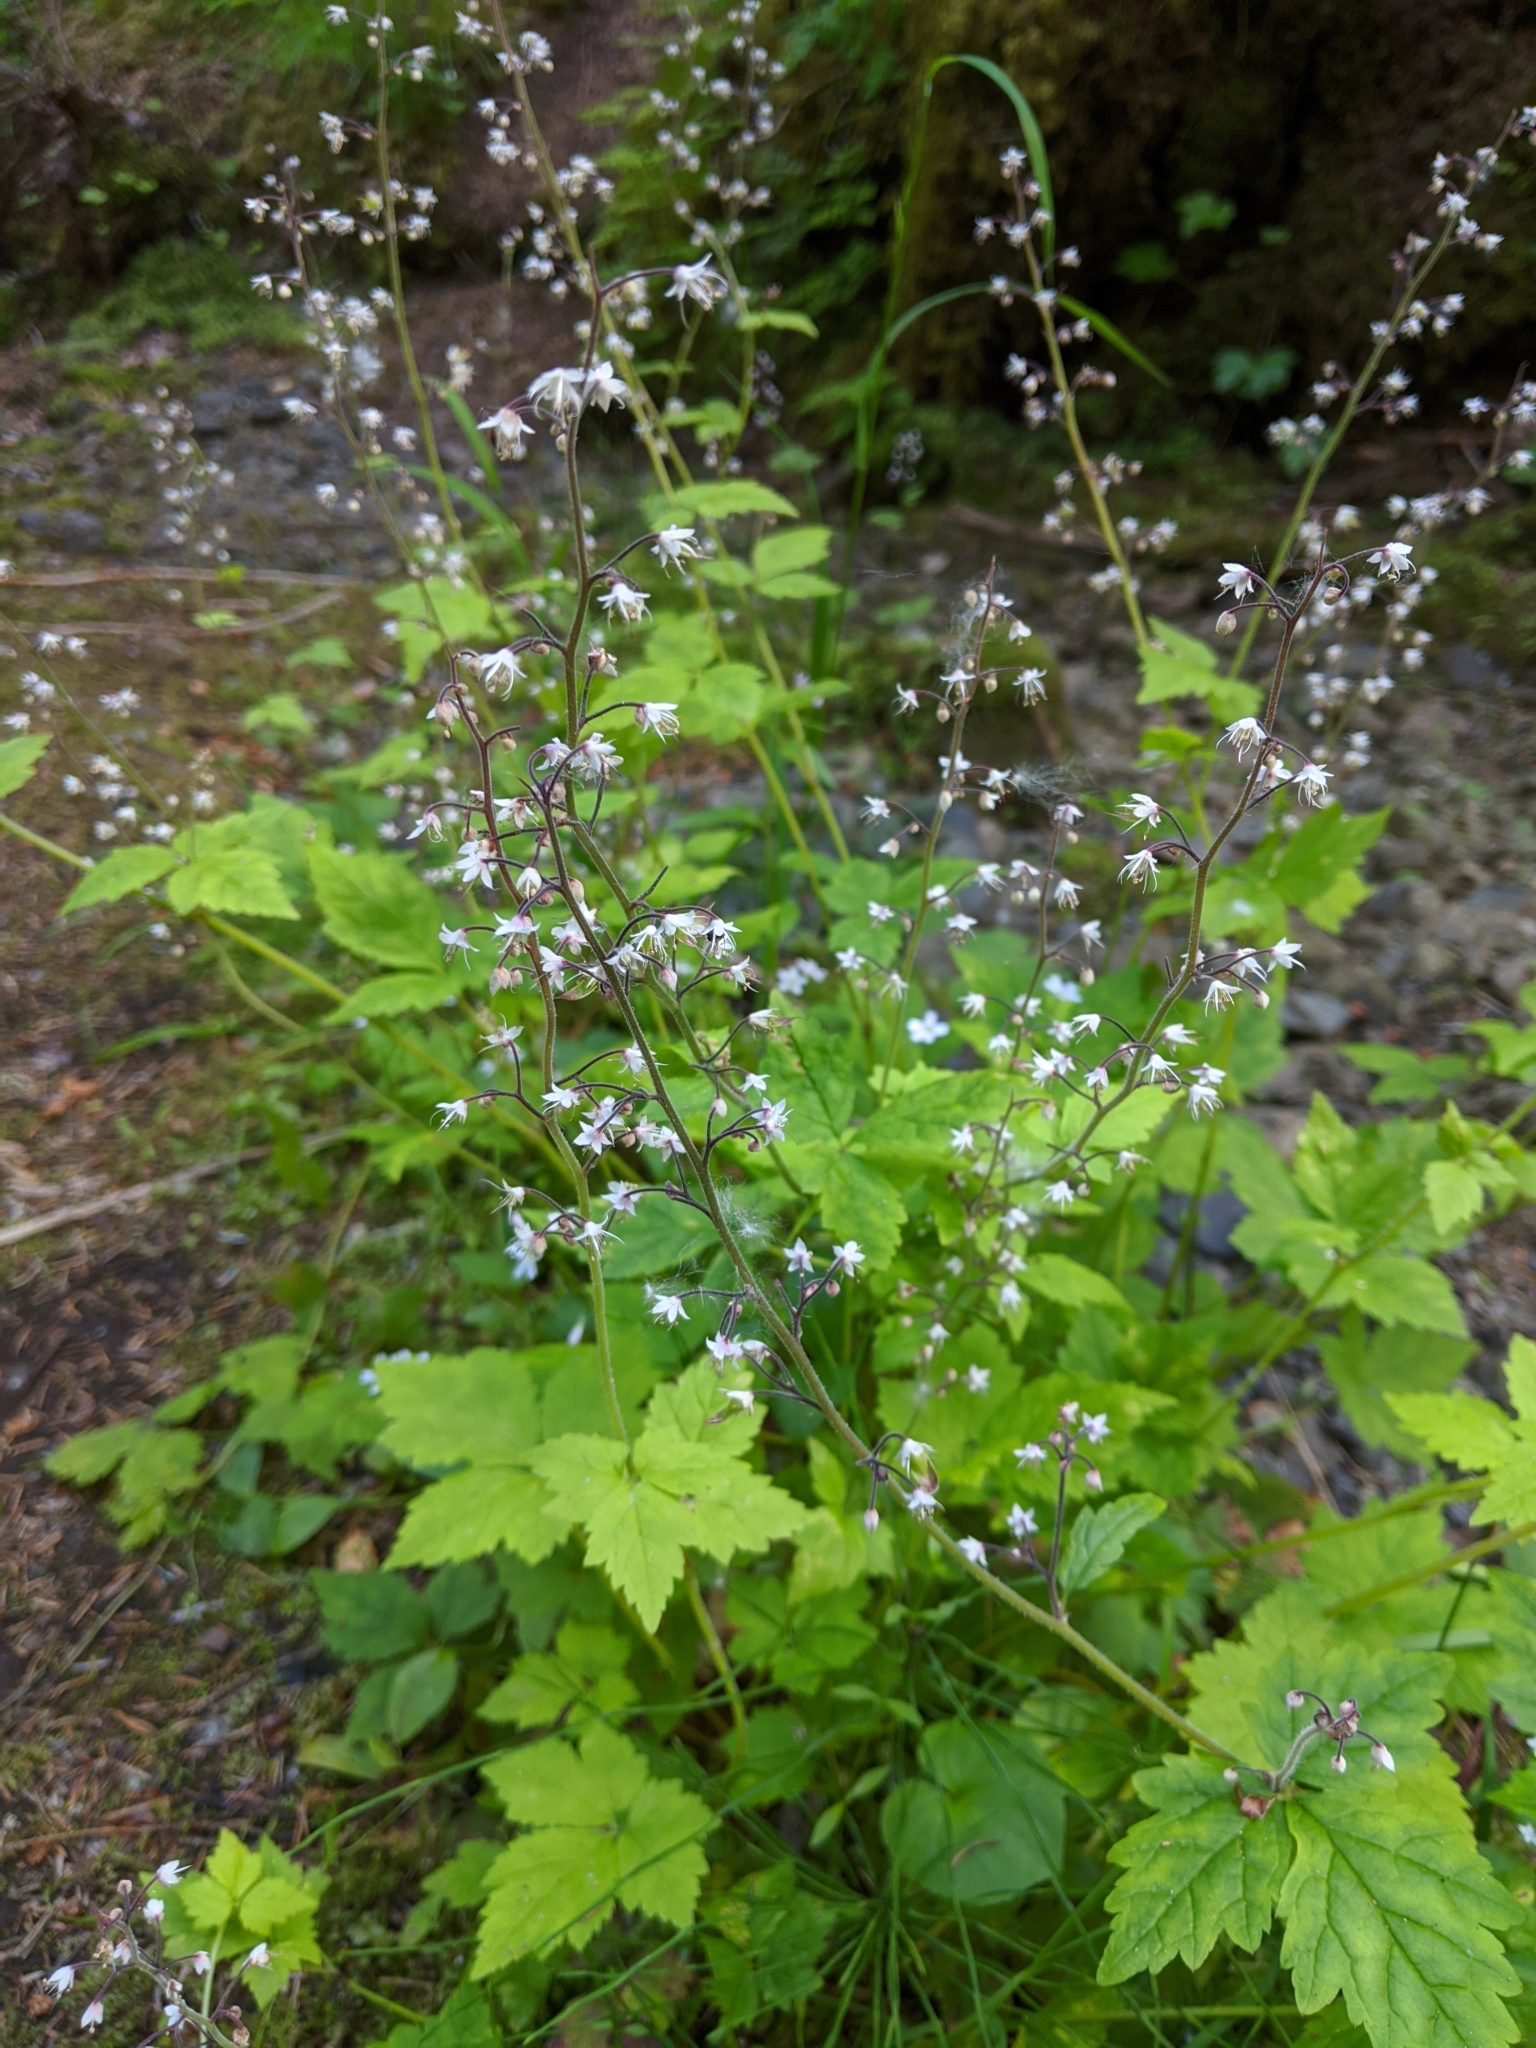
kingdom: Plantae
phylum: Tracheophyta
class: Magnoliopsida
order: Saxifragales
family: Saxifragaceae
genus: Tiarella
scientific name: Tiarella trifoliata
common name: Sugar-scoop
